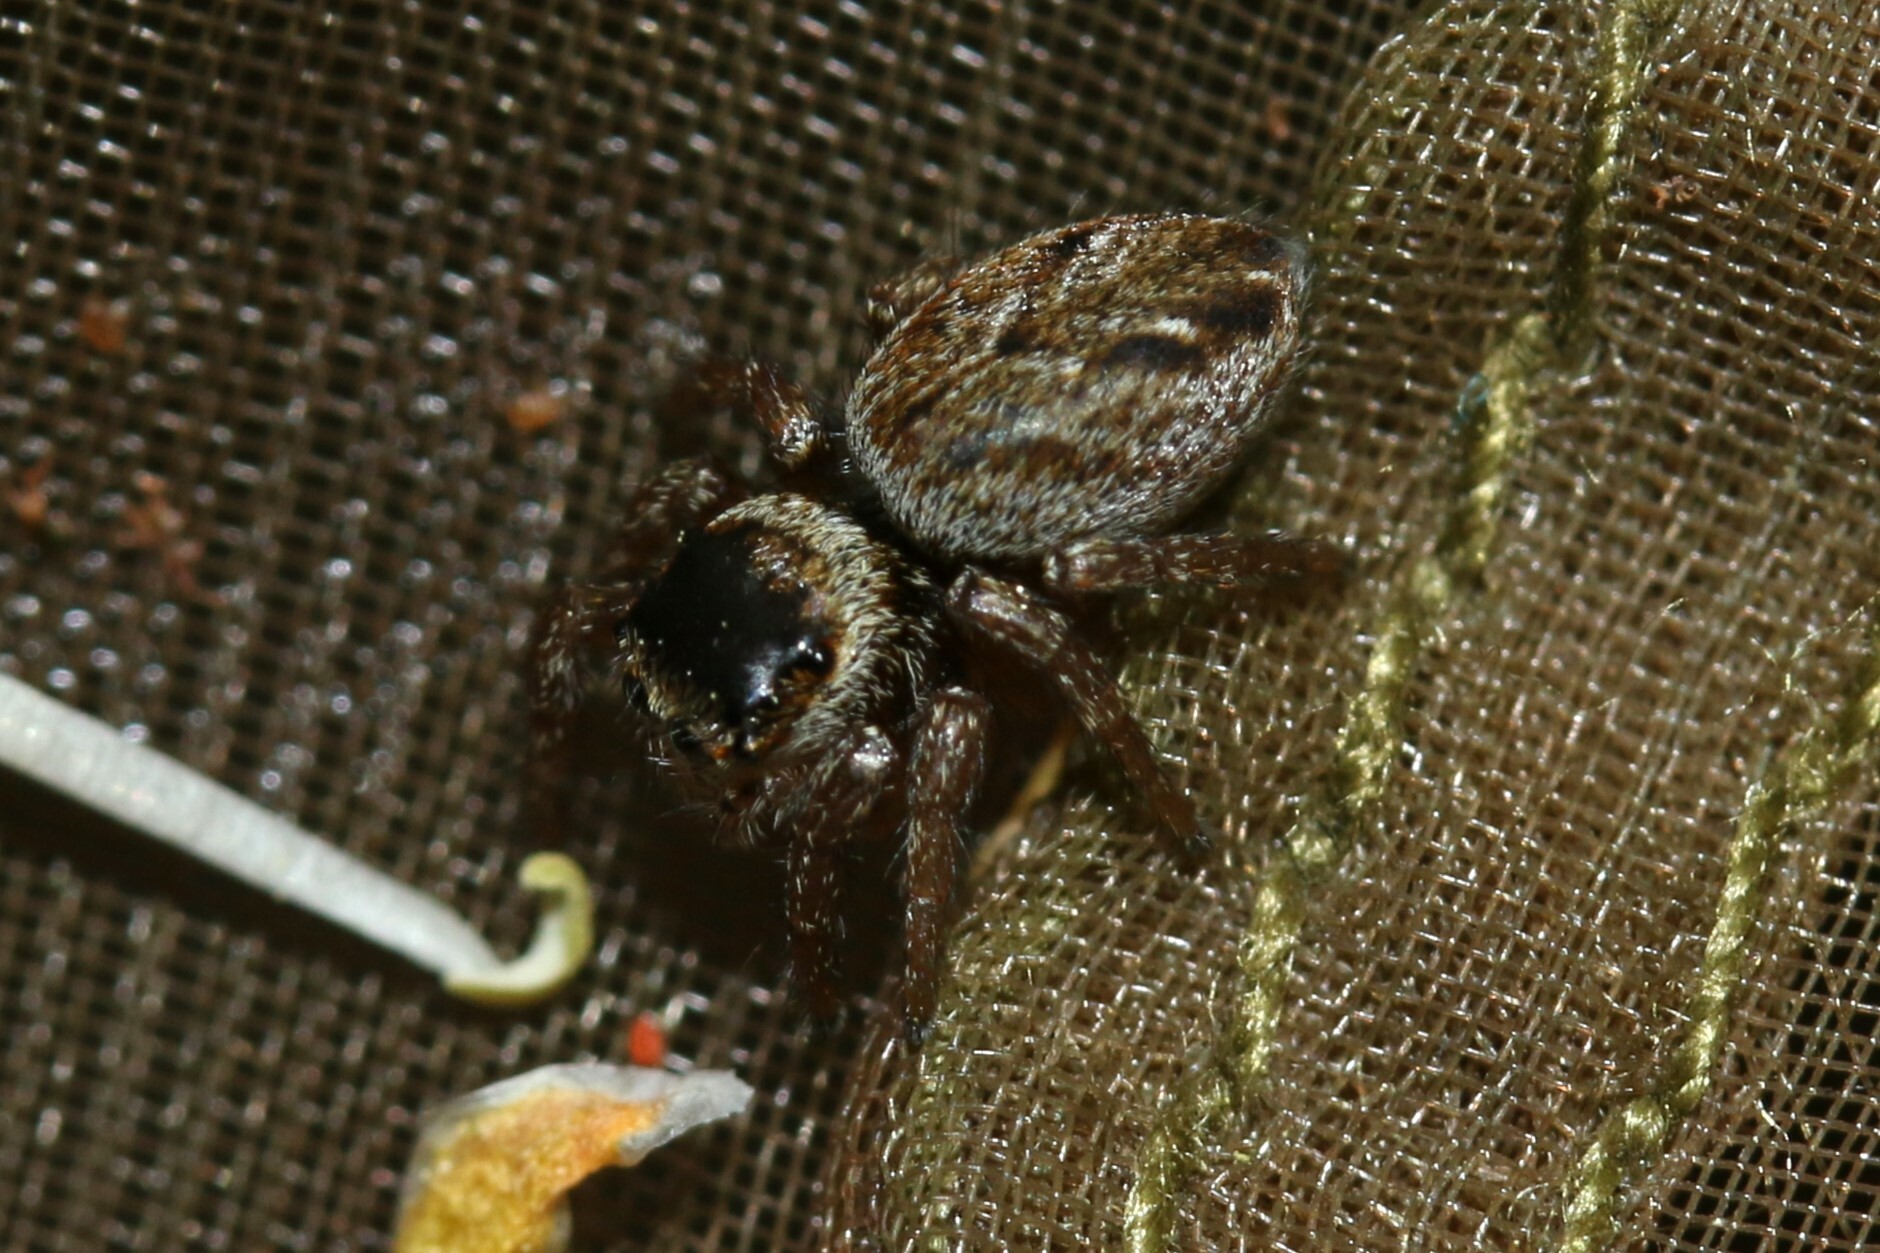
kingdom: Animalia
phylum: Arthropoda
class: Arachnida
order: Araneae
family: Salticidae
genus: Evarcha
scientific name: Evarcha
